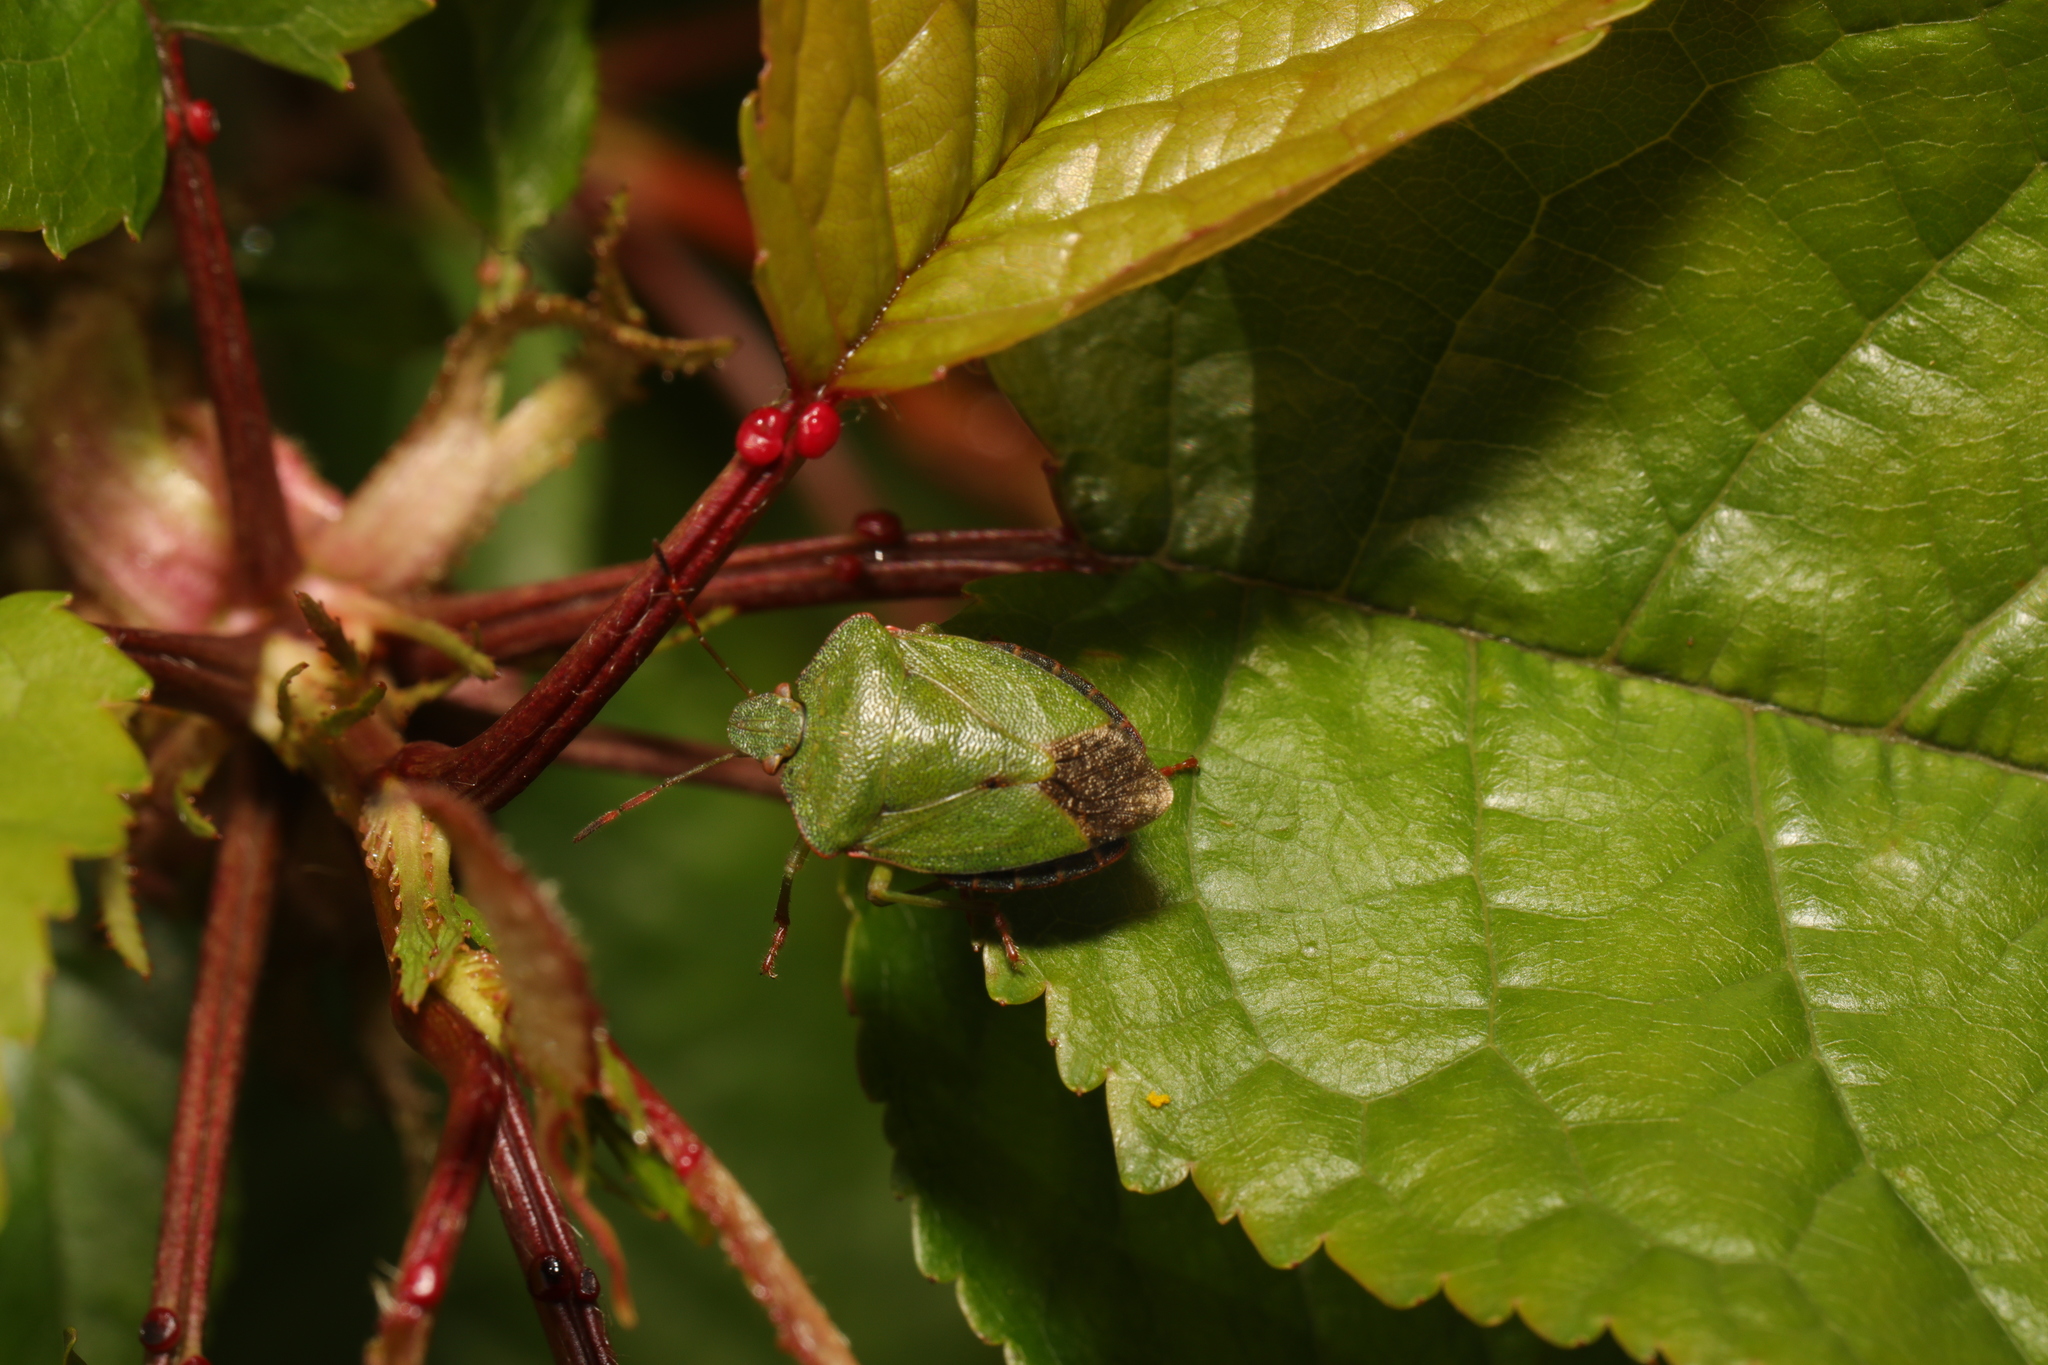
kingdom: Animalia
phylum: Arthropoda
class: Insecta
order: Hemiptera
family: Pentatomidae
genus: Palomena
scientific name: Palomena prasina
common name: Green shieldbug
